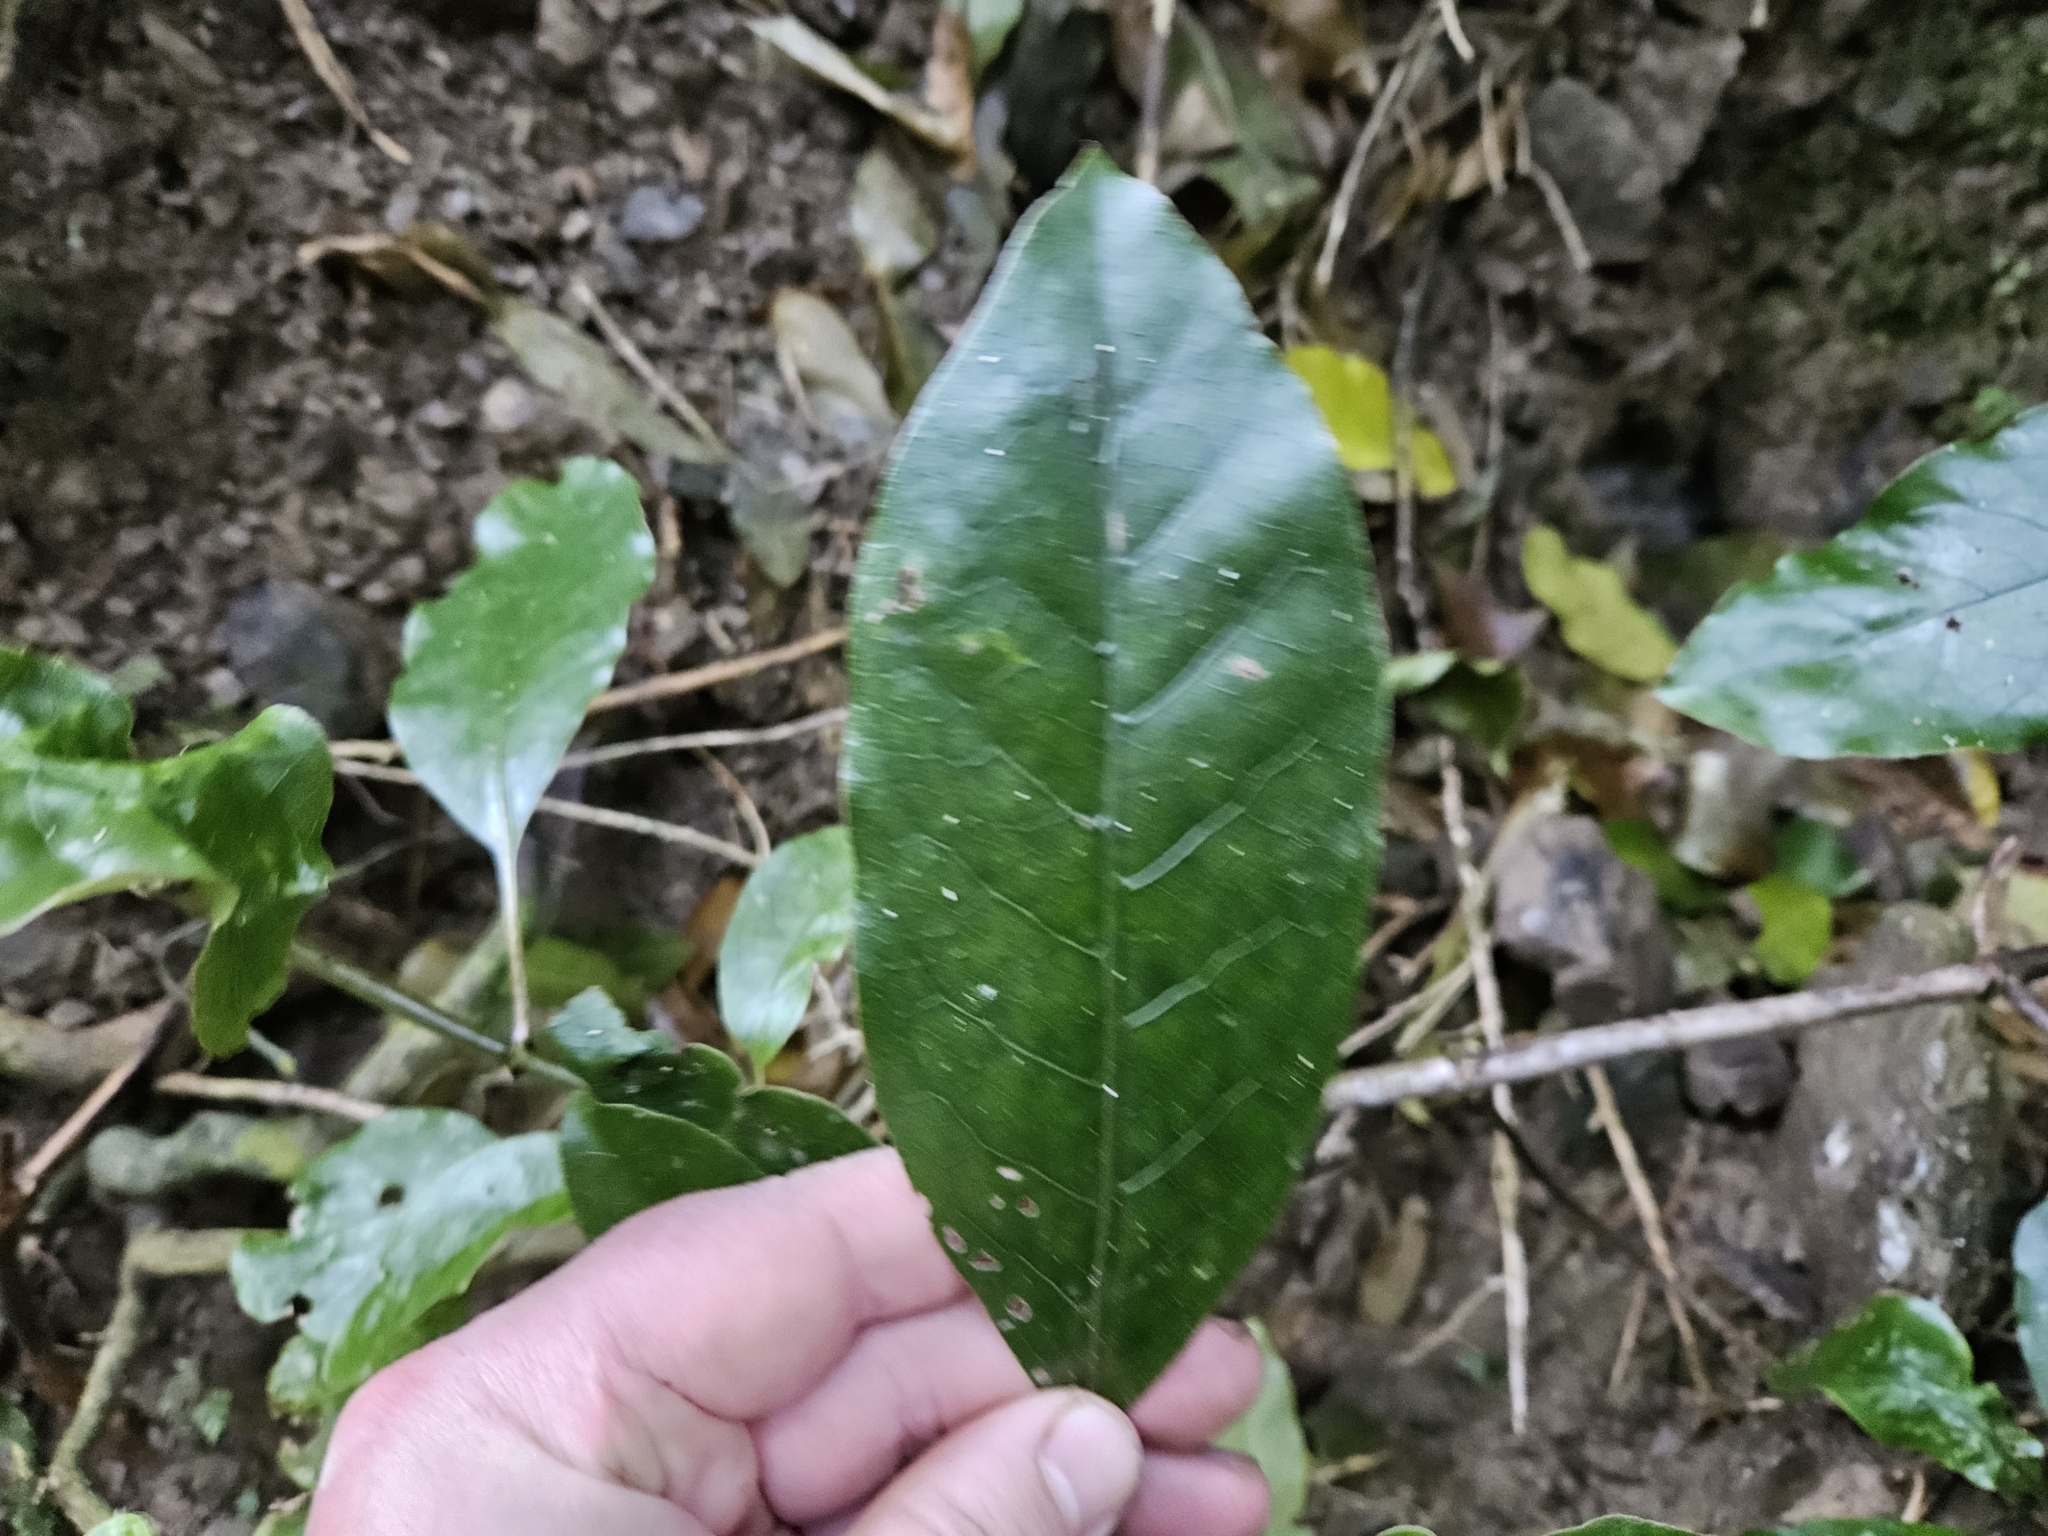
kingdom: Plantae
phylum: Tracheophyta
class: Magnoliopsida
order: Gentianales
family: Rubiaceae
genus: Coprosma
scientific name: Coprosma autumnalis
